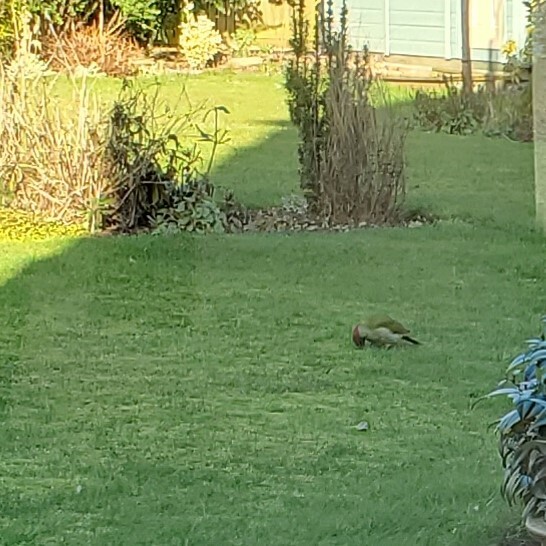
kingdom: Animalia
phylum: Chordata
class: Aves
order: Piciformes
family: Picidae
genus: Picus
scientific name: Picus viridis
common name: European green woodpecker
